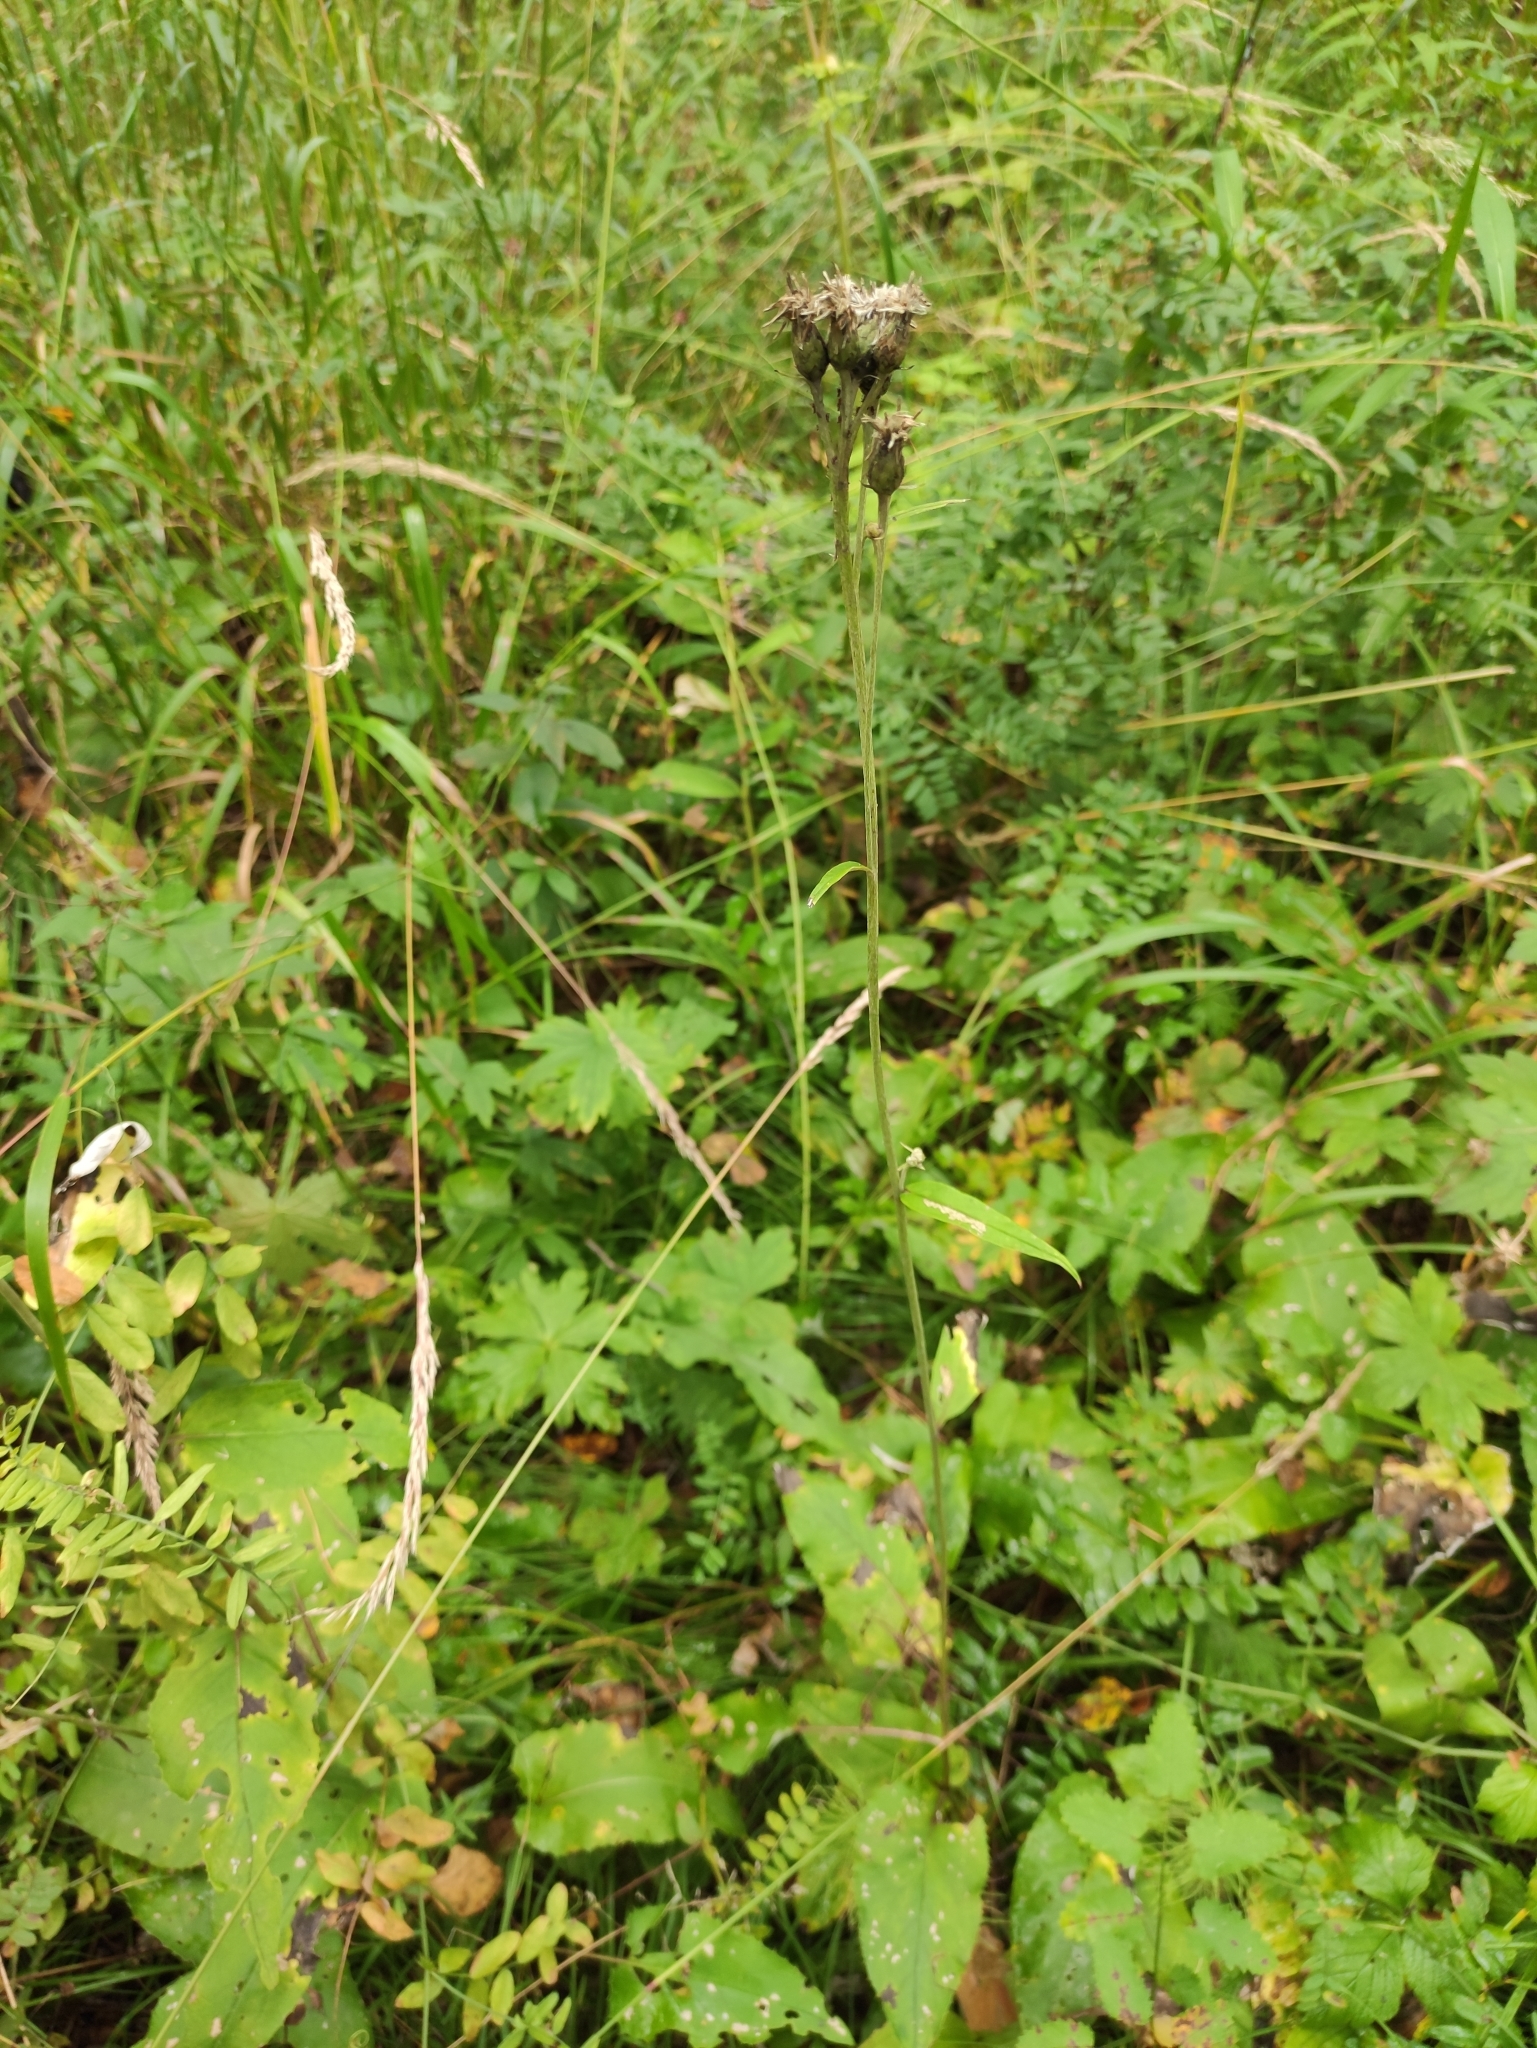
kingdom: Plantae
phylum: Tracheophyta
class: Magnoliopsida
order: Asterales
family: Asteraceae
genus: Saussurea
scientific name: Saussurea controversa
